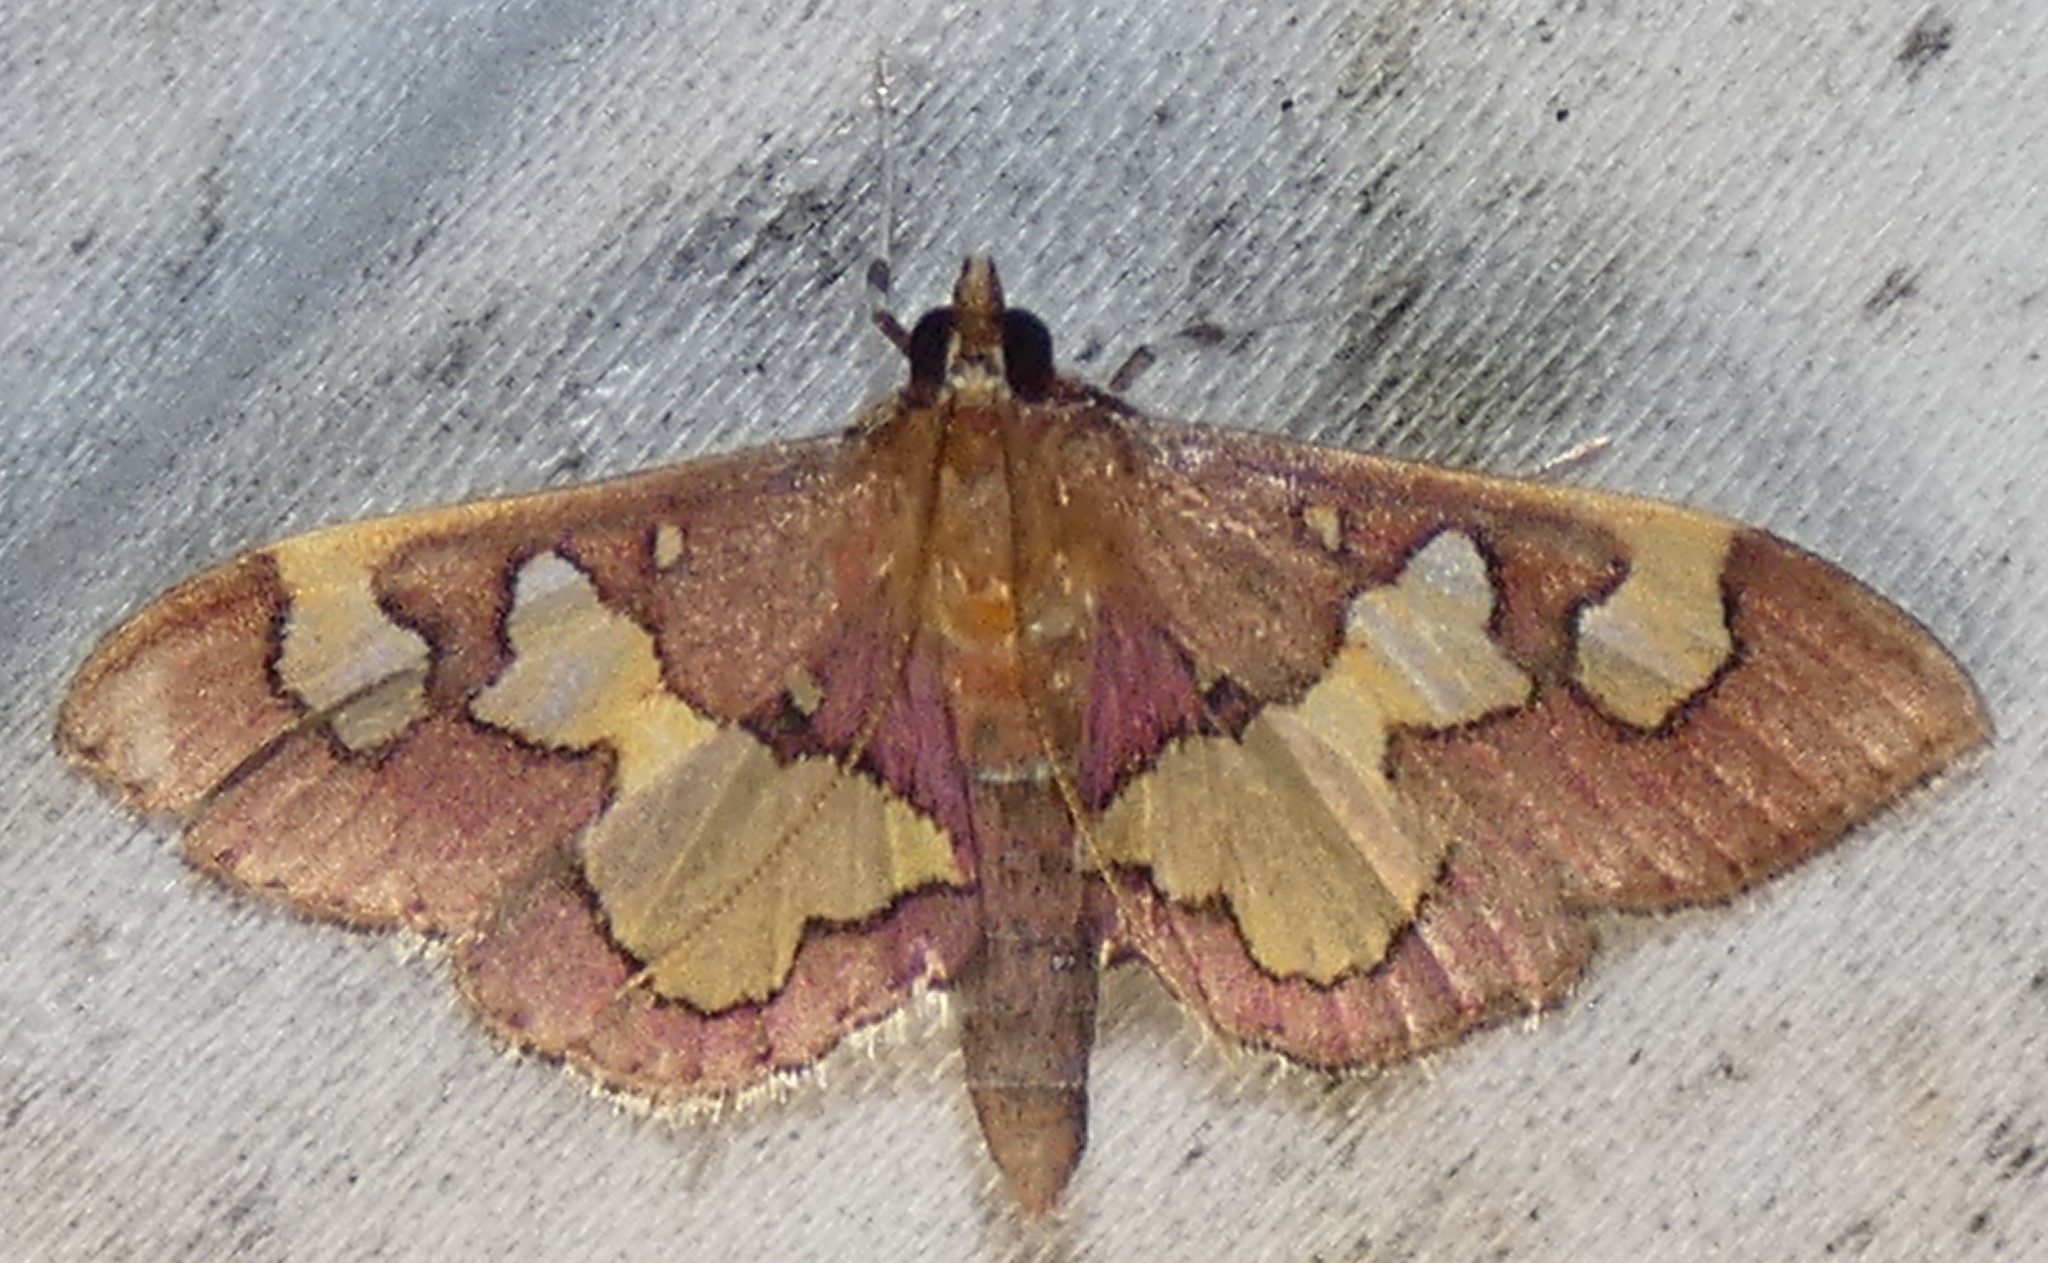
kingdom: Animalia
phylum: Arthropoda
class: Insecta
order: Lepidoptera
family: Crambidae
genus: Colomychus
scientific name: Colomychus talis
